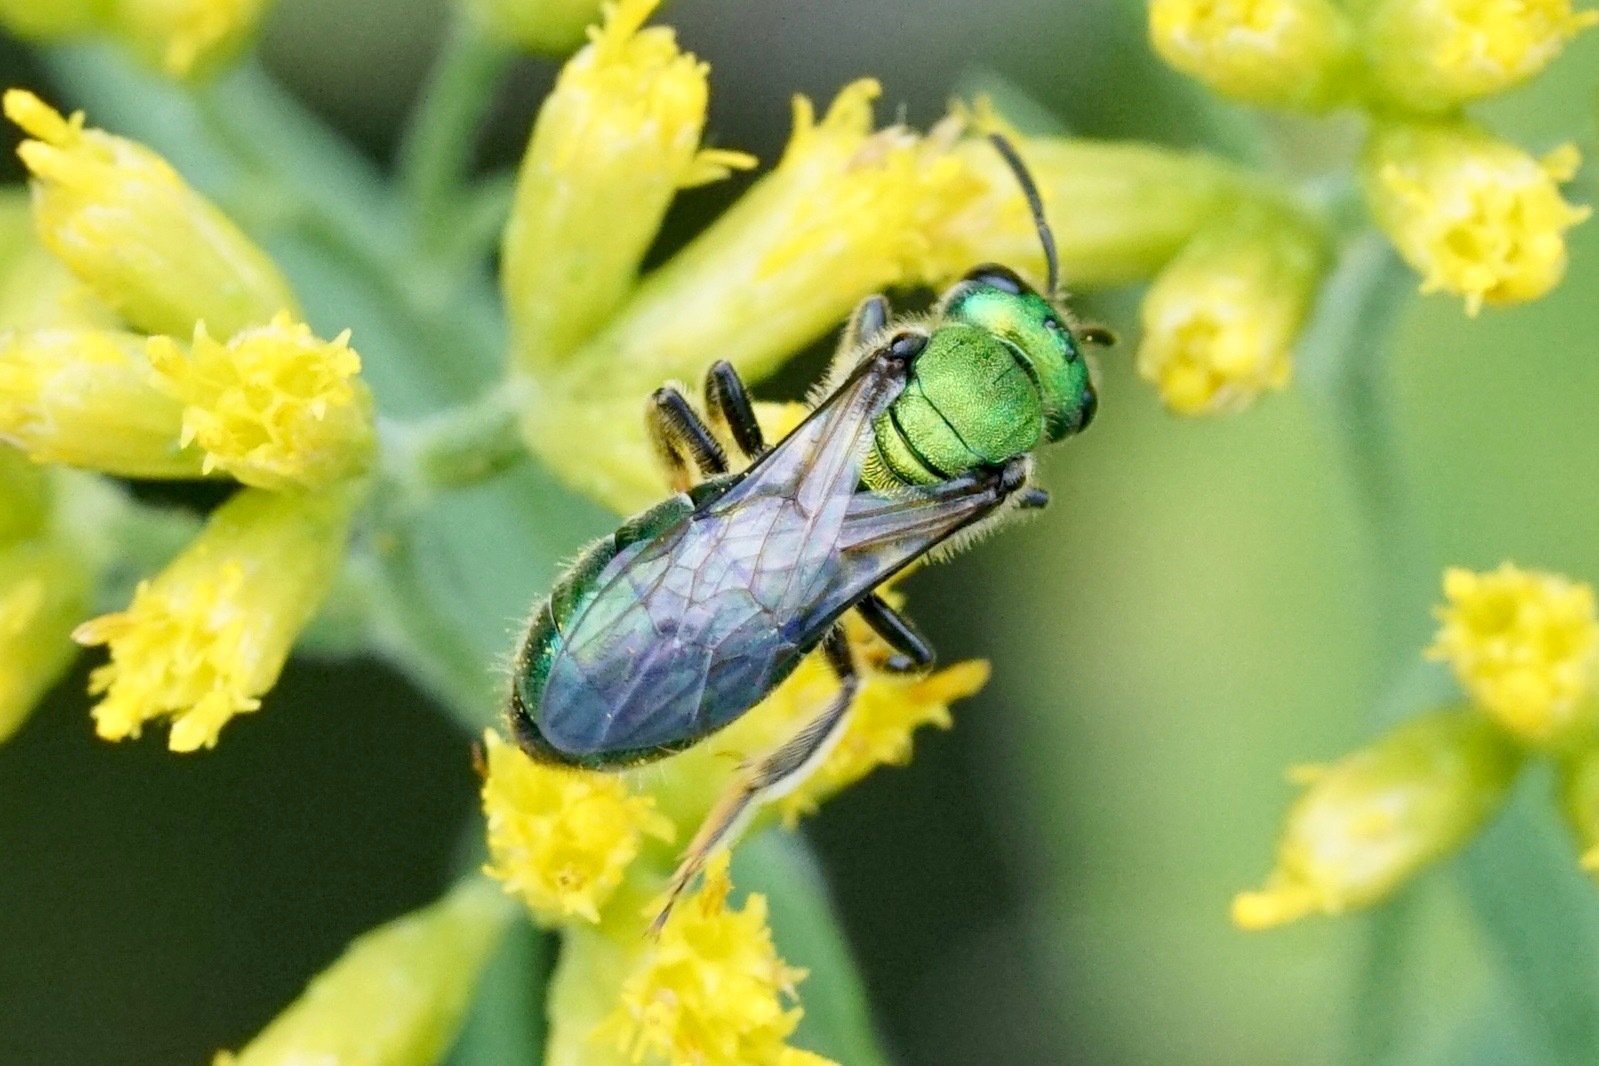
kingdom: Animalia
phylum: Arthropoda
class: Insecta
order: Hymenoptera
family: Halictidae
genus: Augochlora
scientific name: Augochlora pura
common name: Pure green sweat bee
